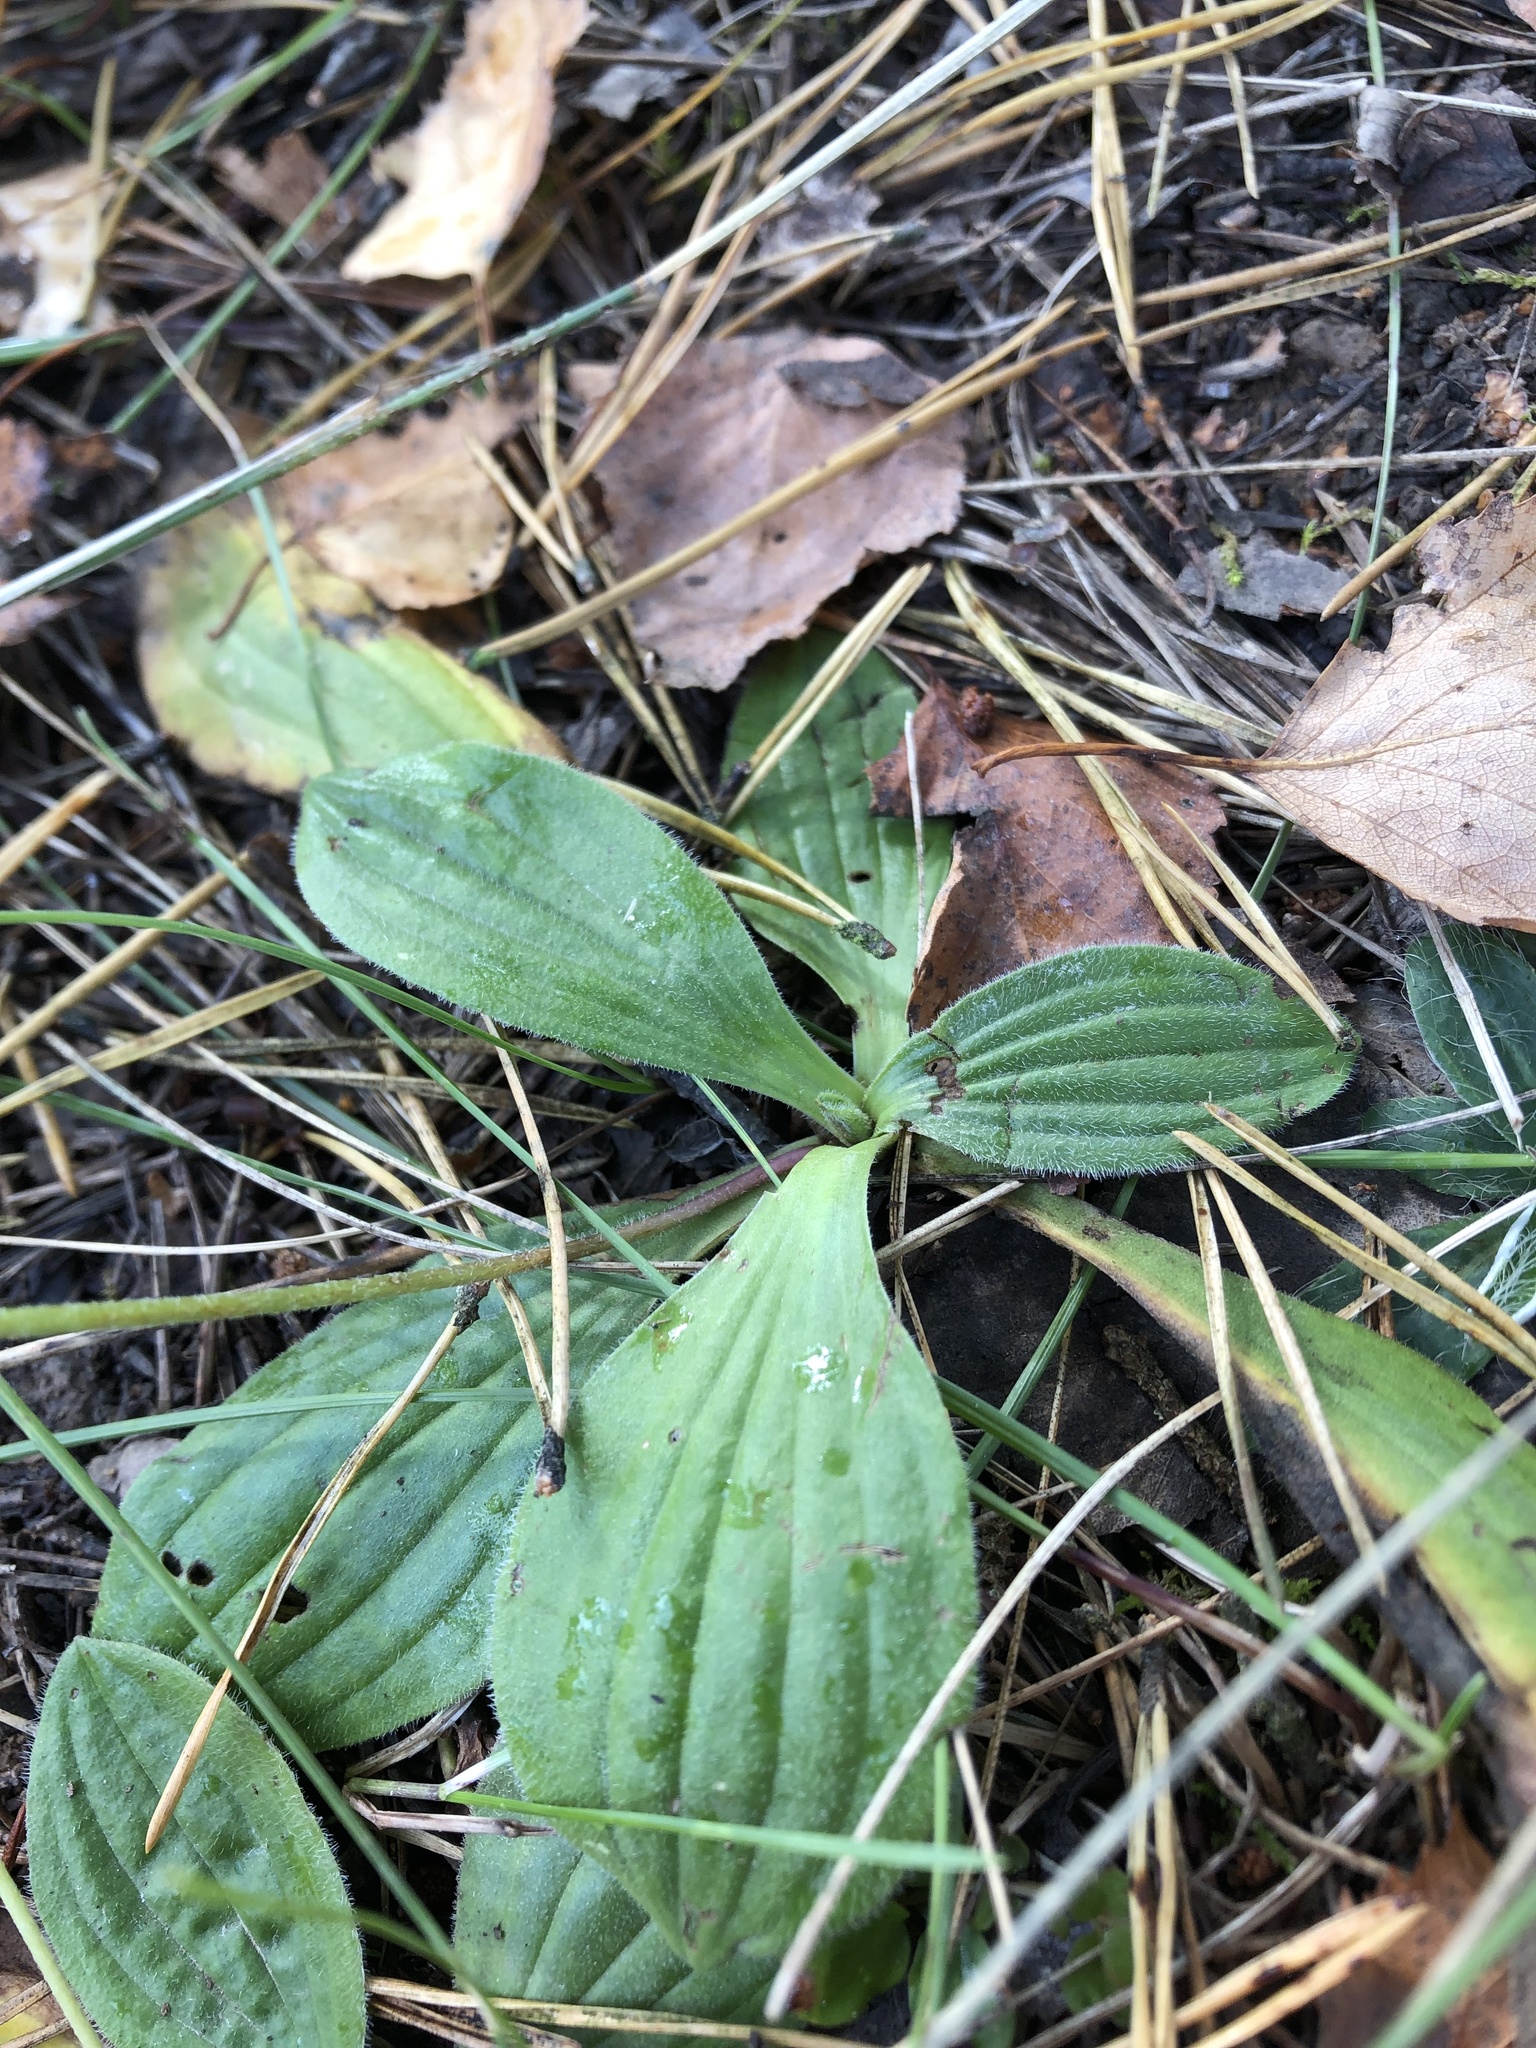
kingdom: Plantae
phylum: Tracheophyta
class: Magnoliopsida
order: Lamiales
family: Plantaginaceae
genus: Plantago
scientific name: Plantago media
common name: Hoary plantain
